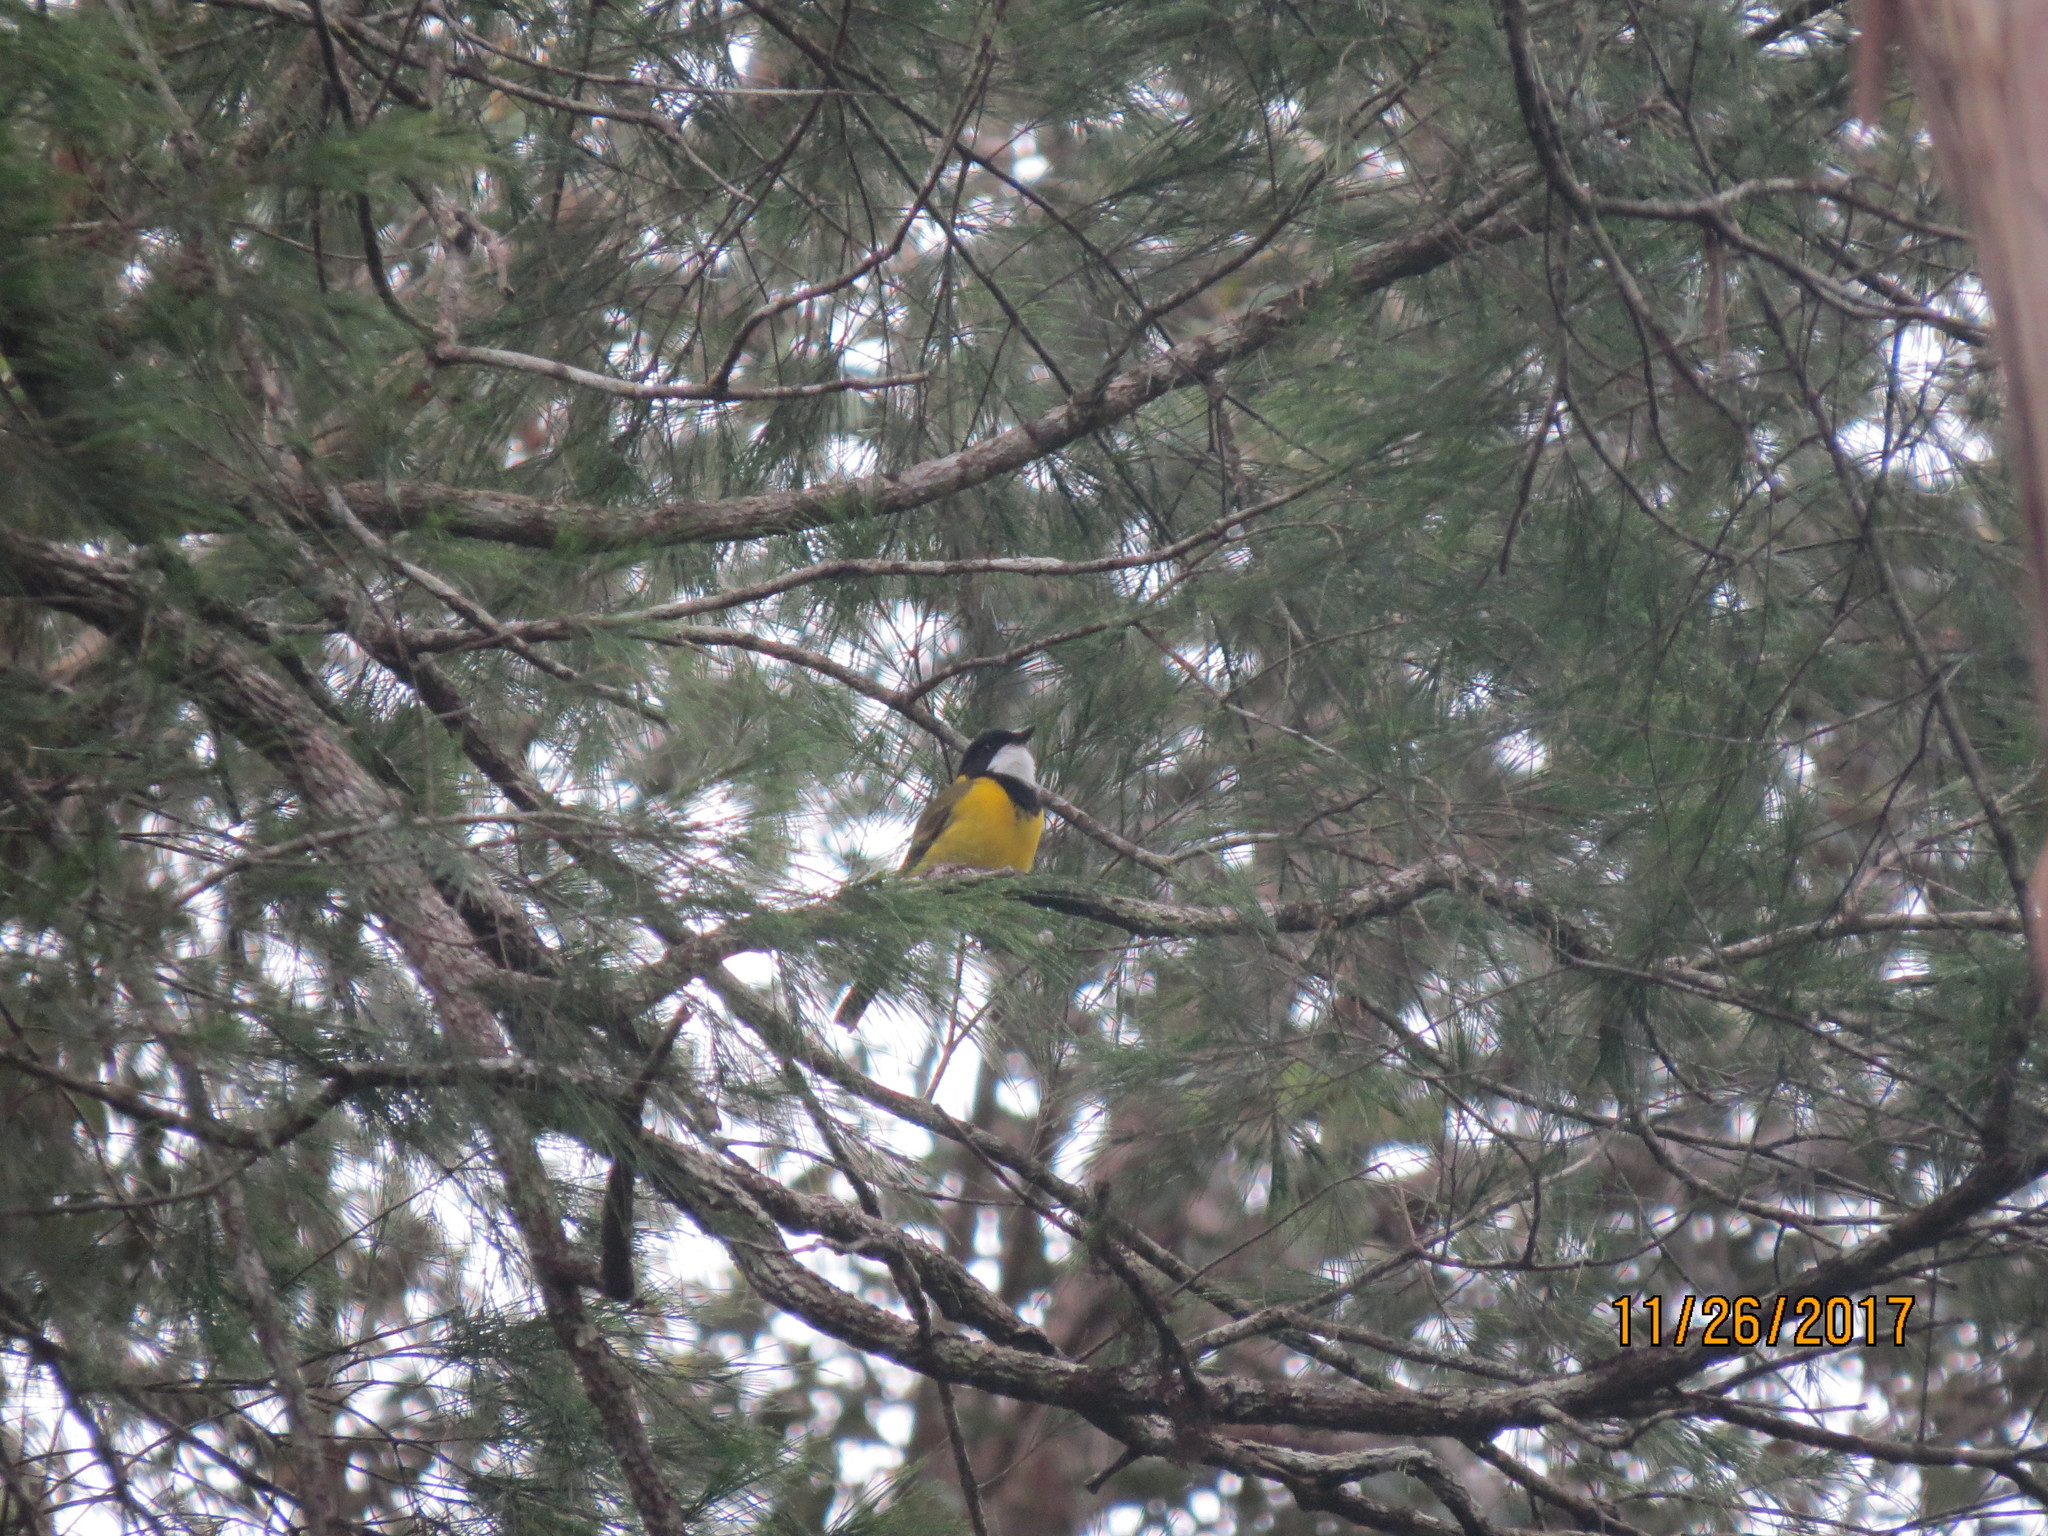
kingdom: Animalia
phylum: Chordata
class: Aves
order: Passeriformes
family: Pachycephalidae
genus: Pachycephala
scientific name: Pachycephala pectoralis
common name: Australian golden whistler
